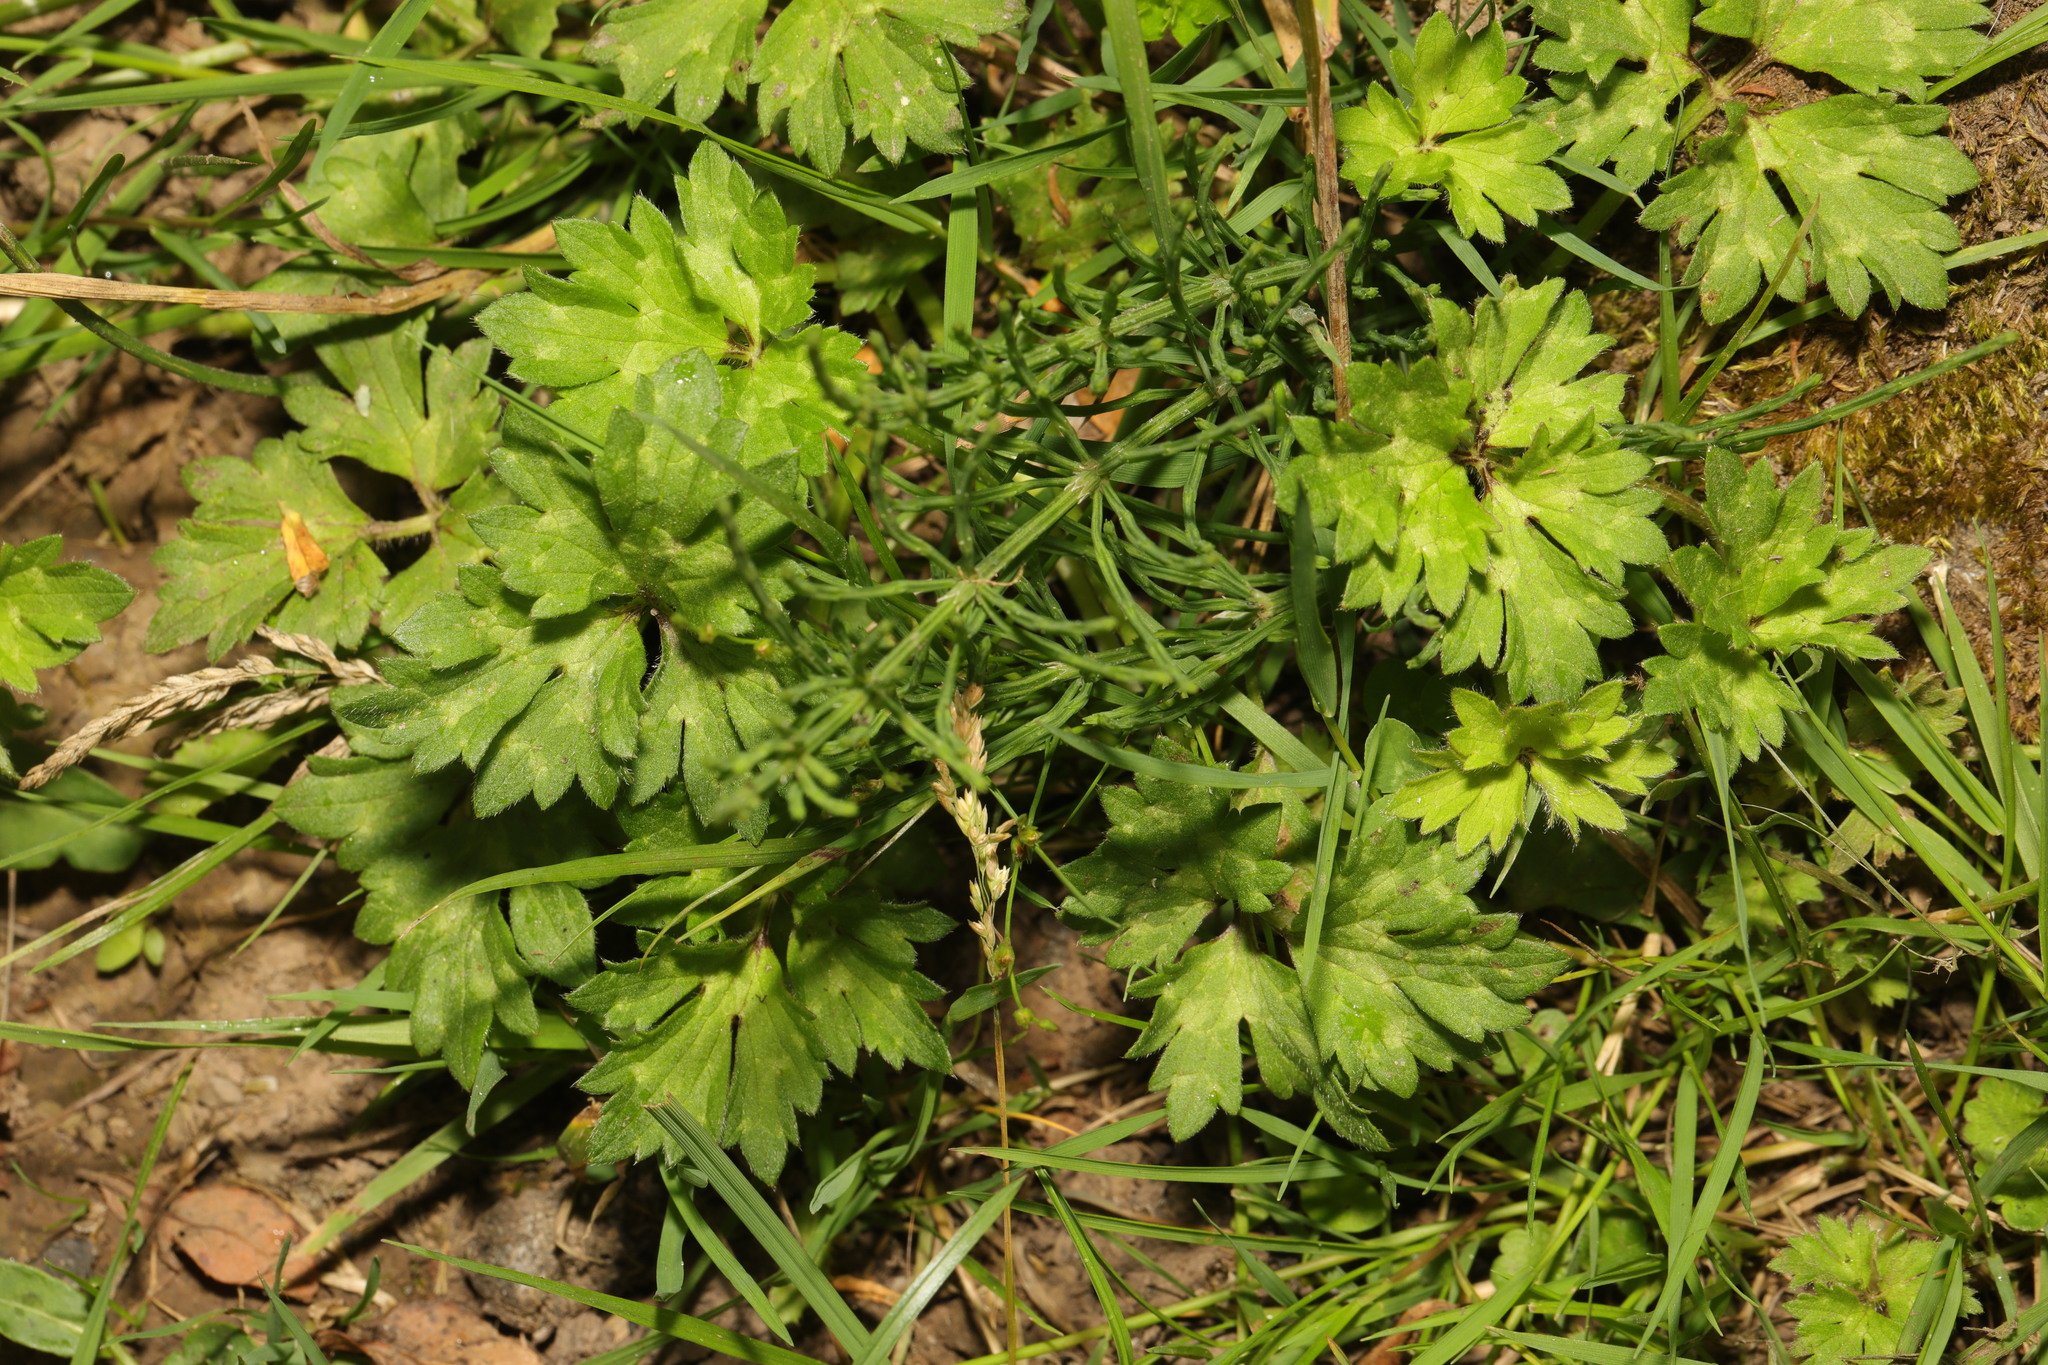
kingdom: Plantae
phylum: Tracheophyta
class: Magnoliopsida
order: Ranunculales
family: Ranunculaceae
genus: Ranunculus
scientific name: Ranunculus repens
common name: Creeping buttercup
